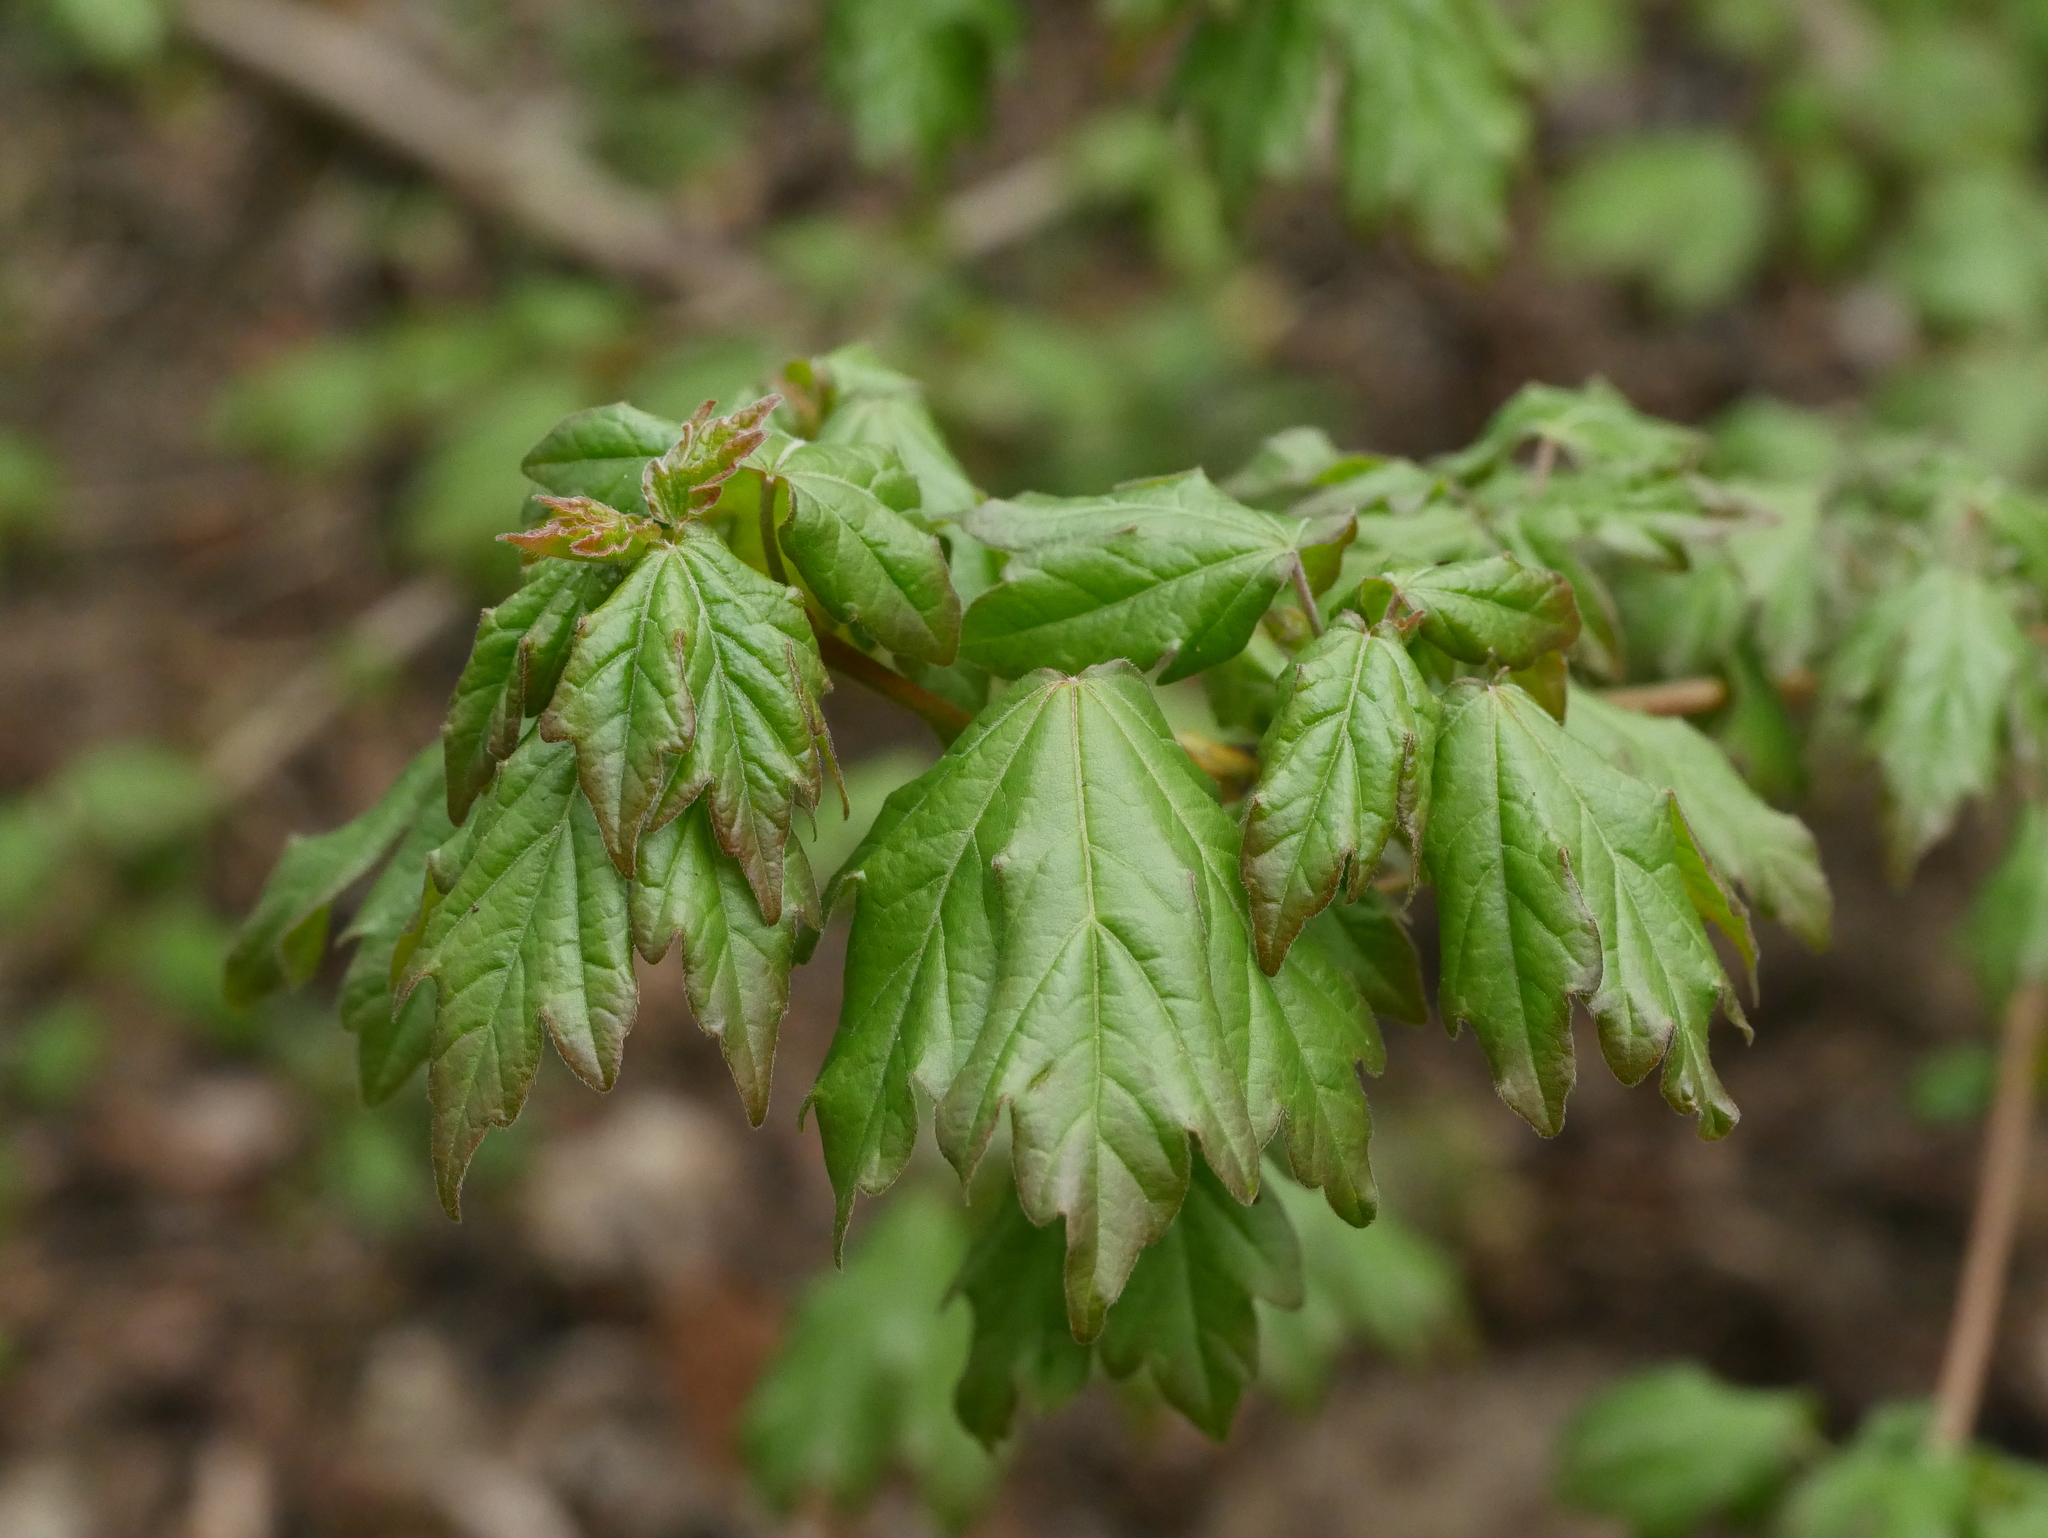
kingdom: Plantae
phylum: Tracheophyta
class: Magnoliopsida
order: Sapindales
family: Sapindaceae
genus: Acer
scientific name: Acer campestre
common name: Field maple
